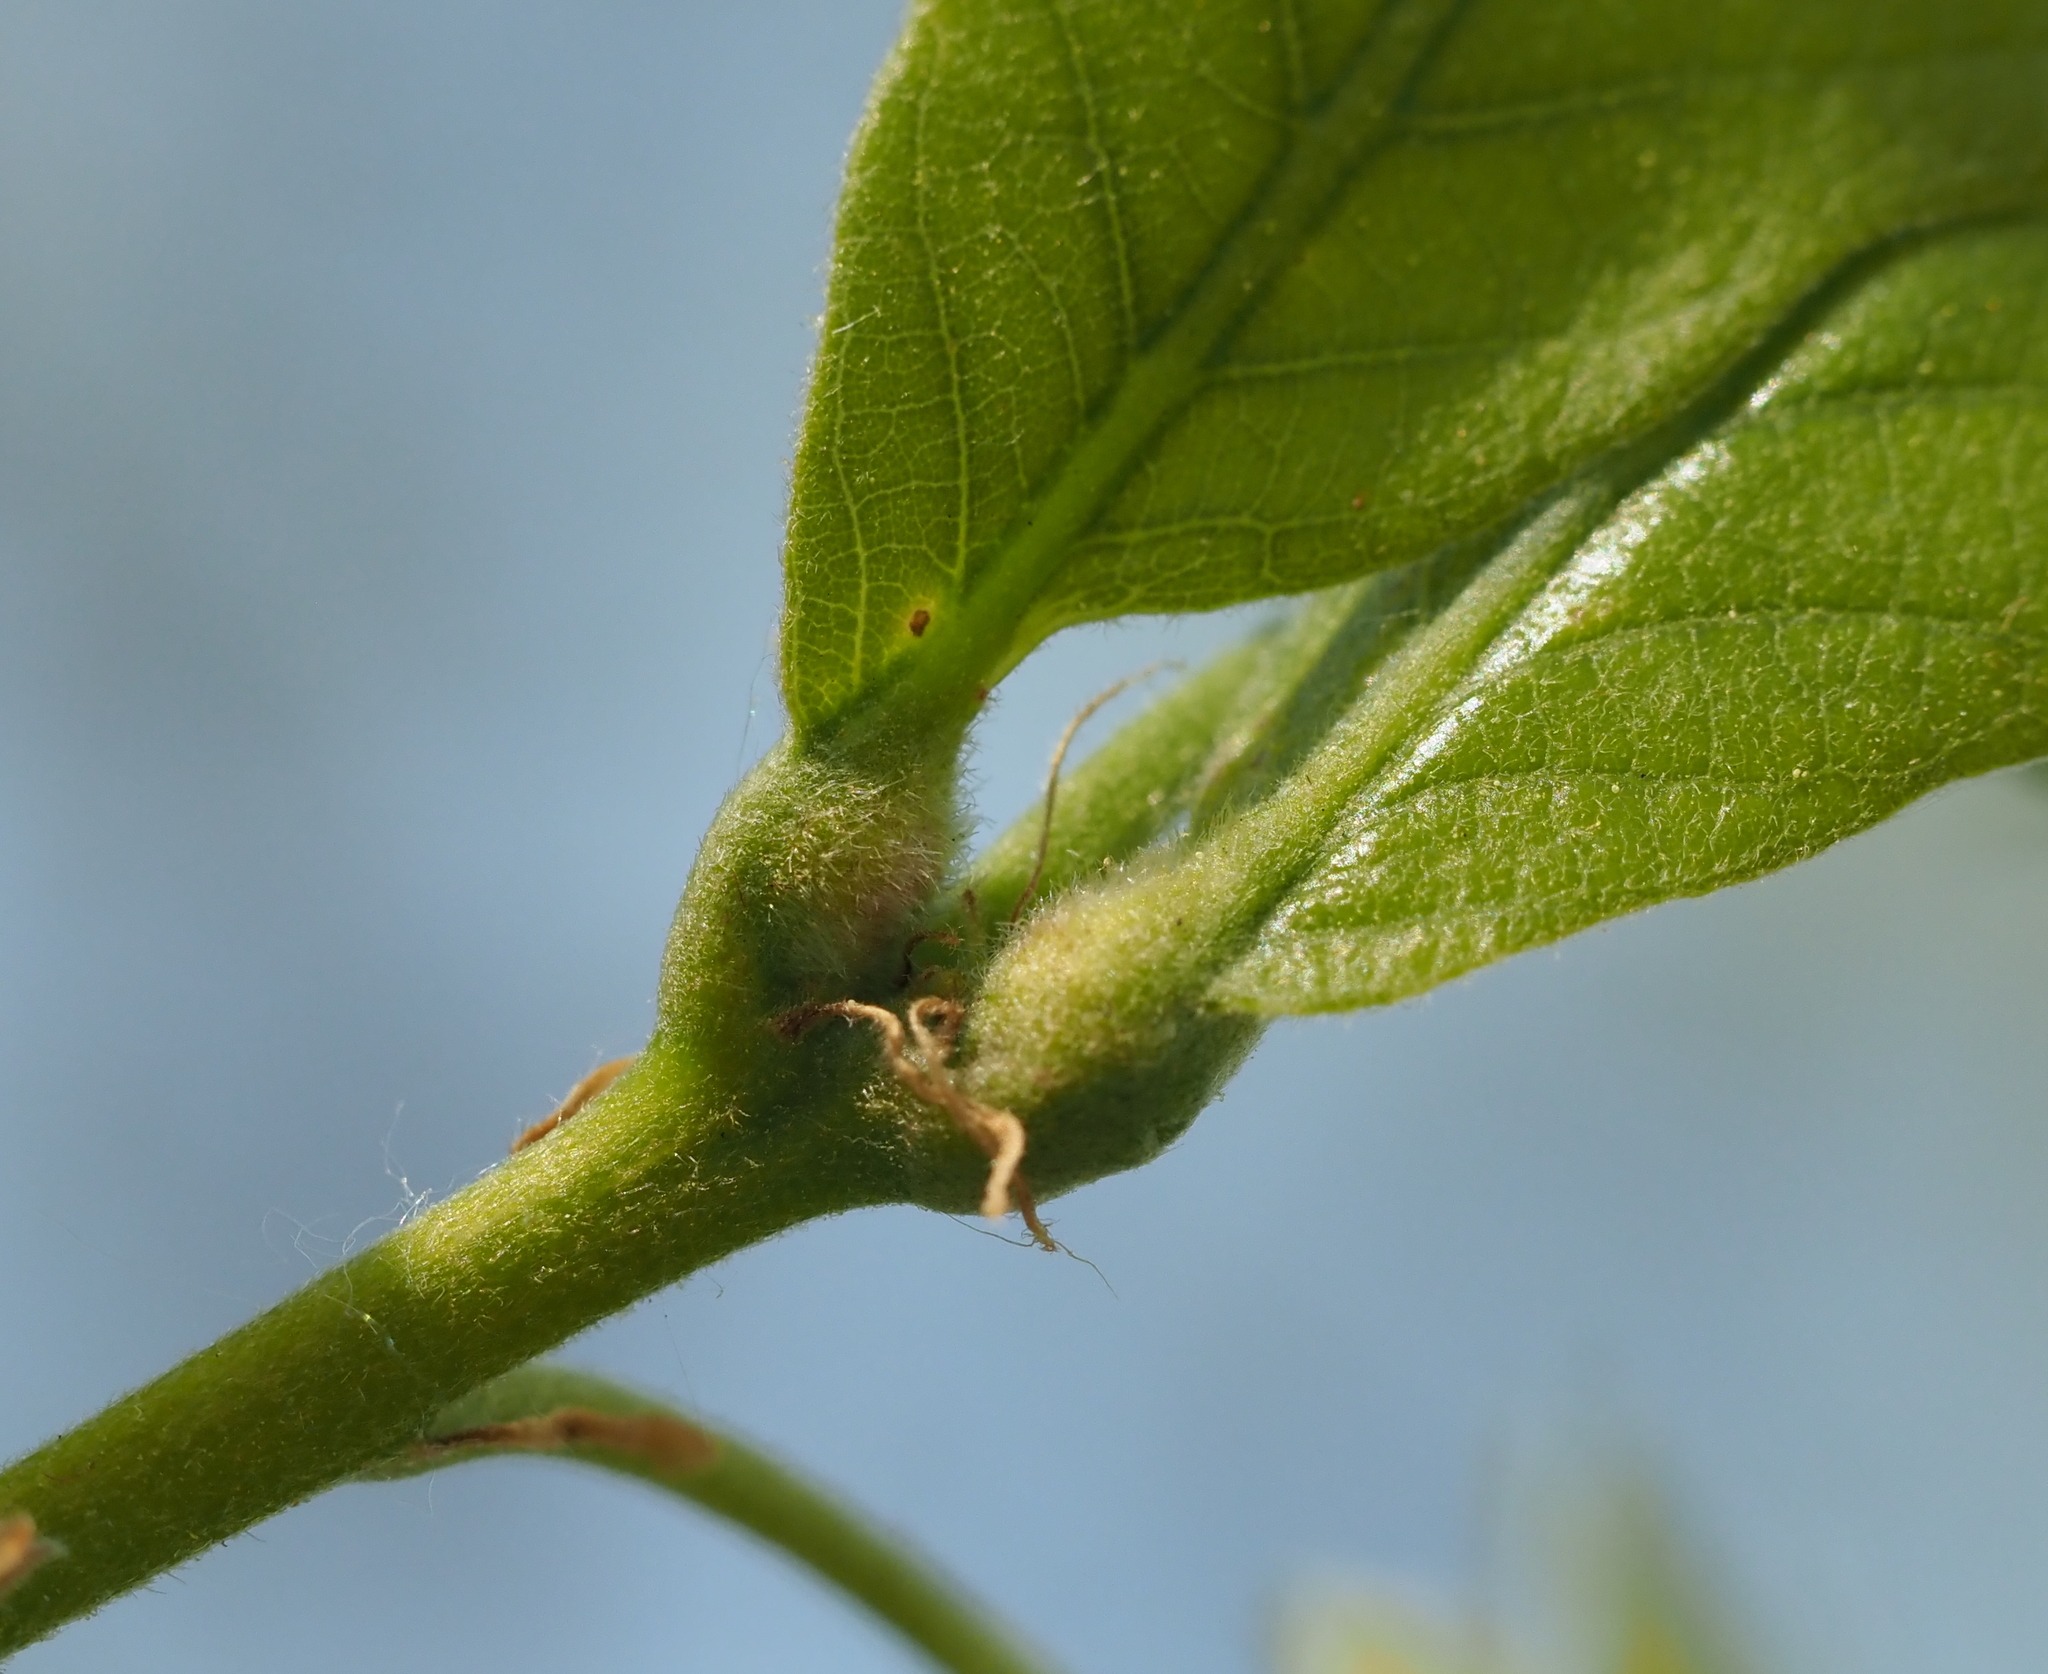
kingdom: Animalia
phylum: Arthropoda
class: Insecta
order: Hymenoptera
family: Cynipidae
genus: Andricus
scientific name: Andricus
